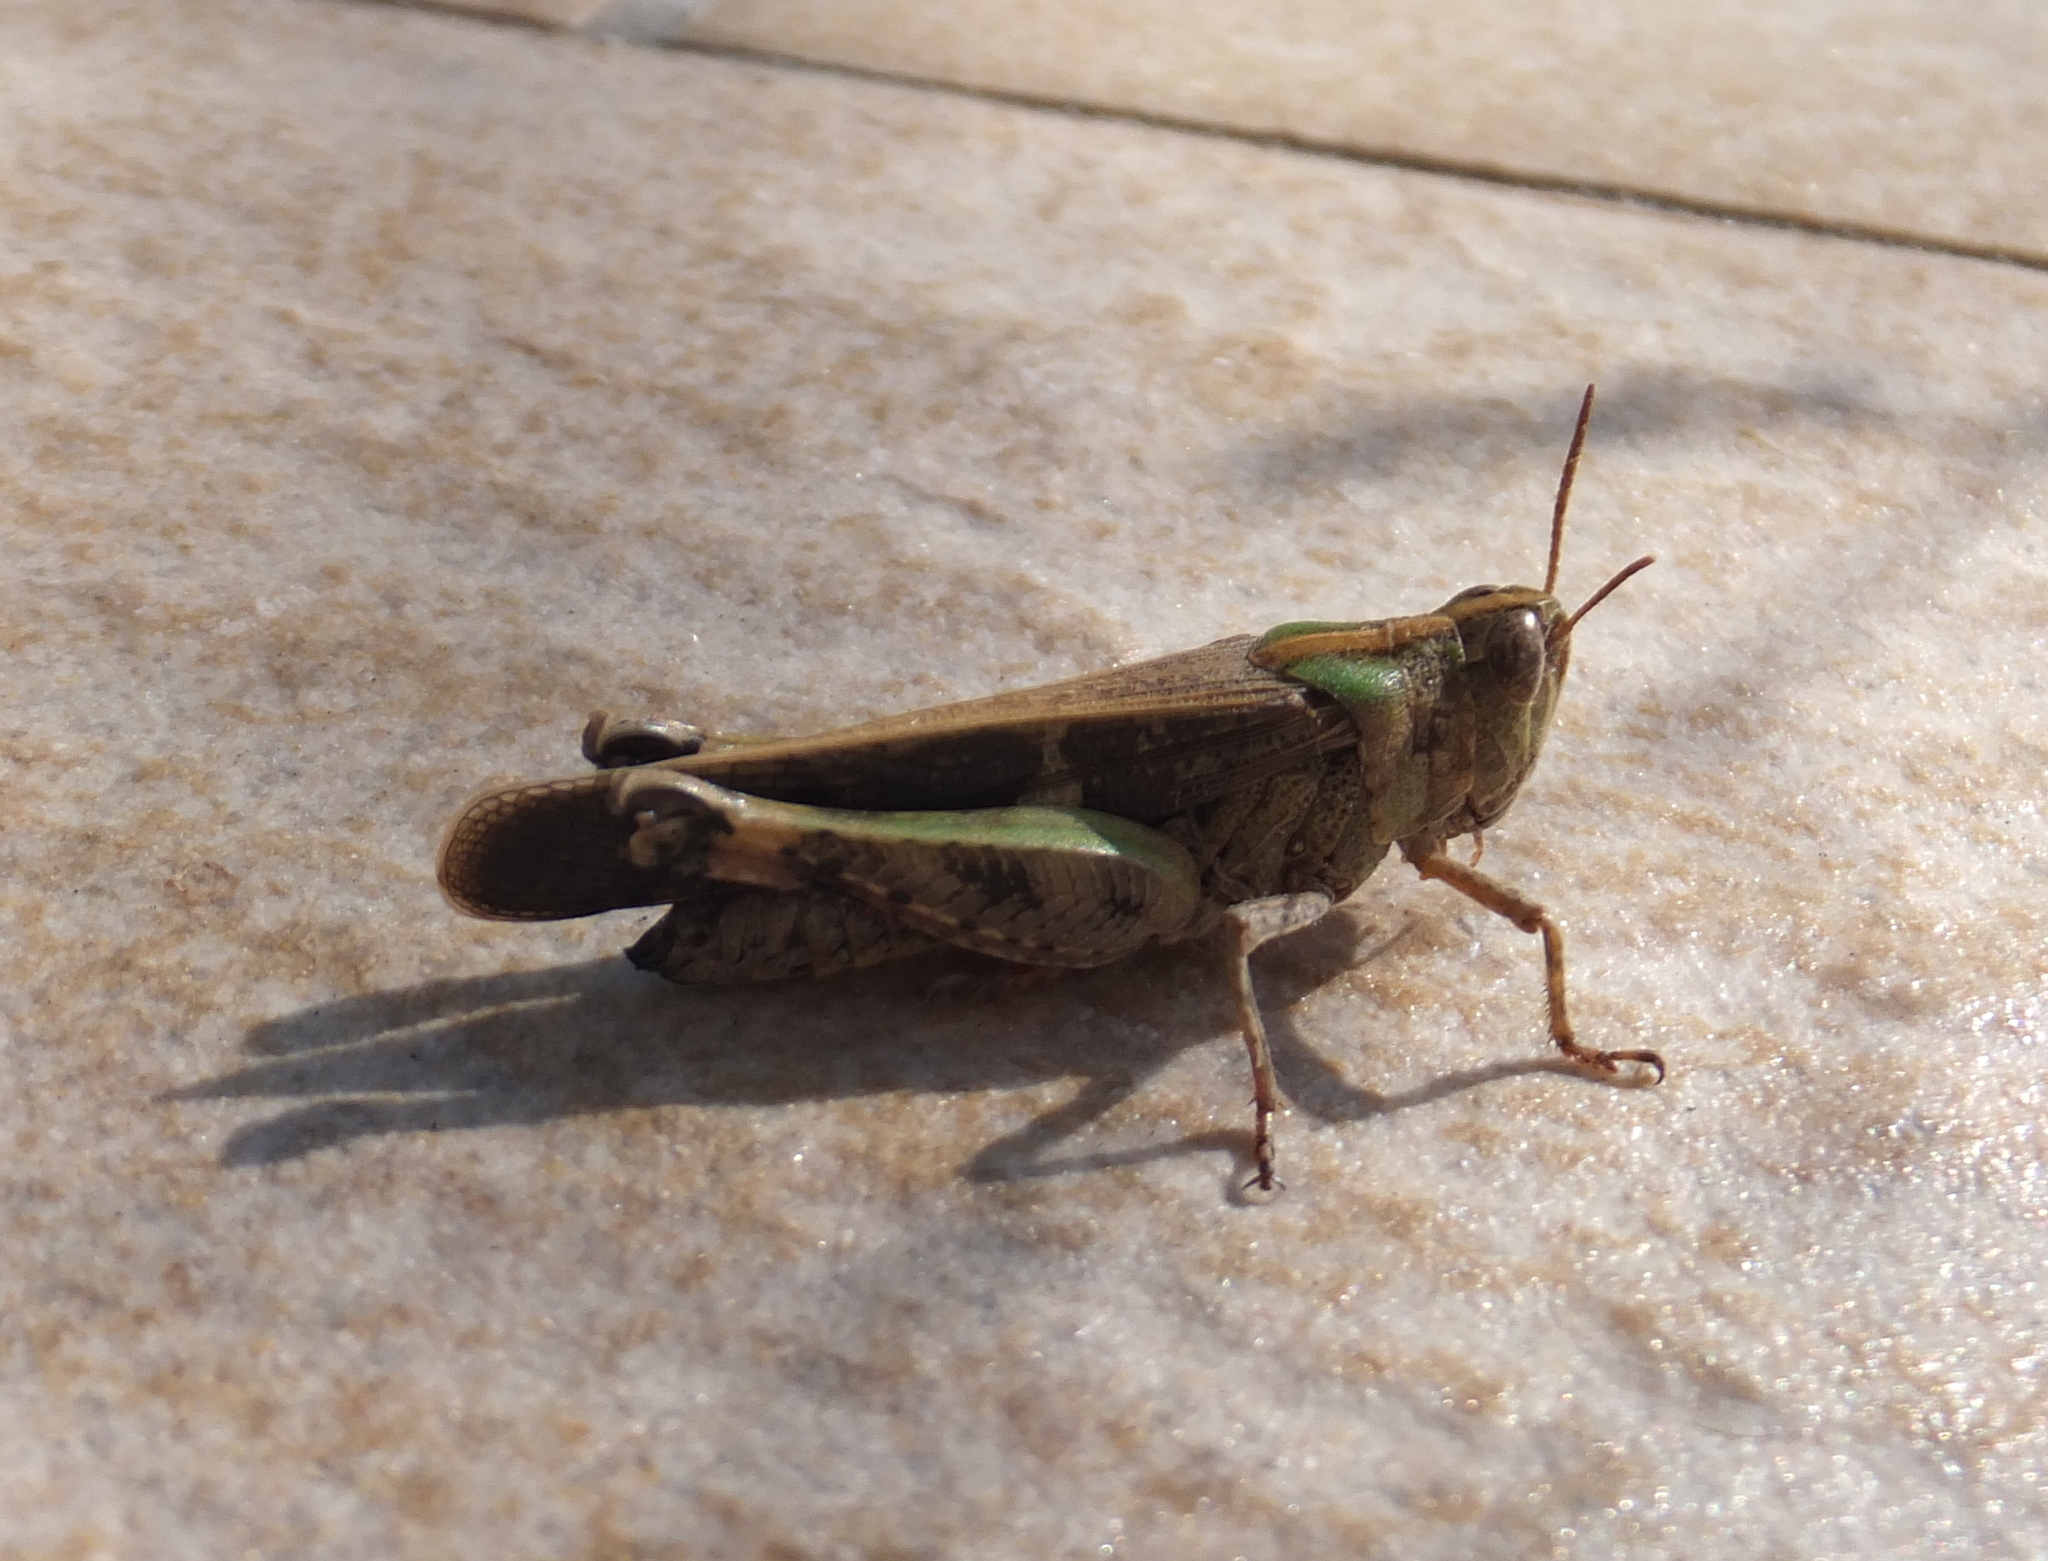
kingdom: Animalia
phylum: Arthropoda
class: Insecta
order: Orthoptera
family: Acrididae
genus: Aiolopus
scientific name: Aiolopus strepens
